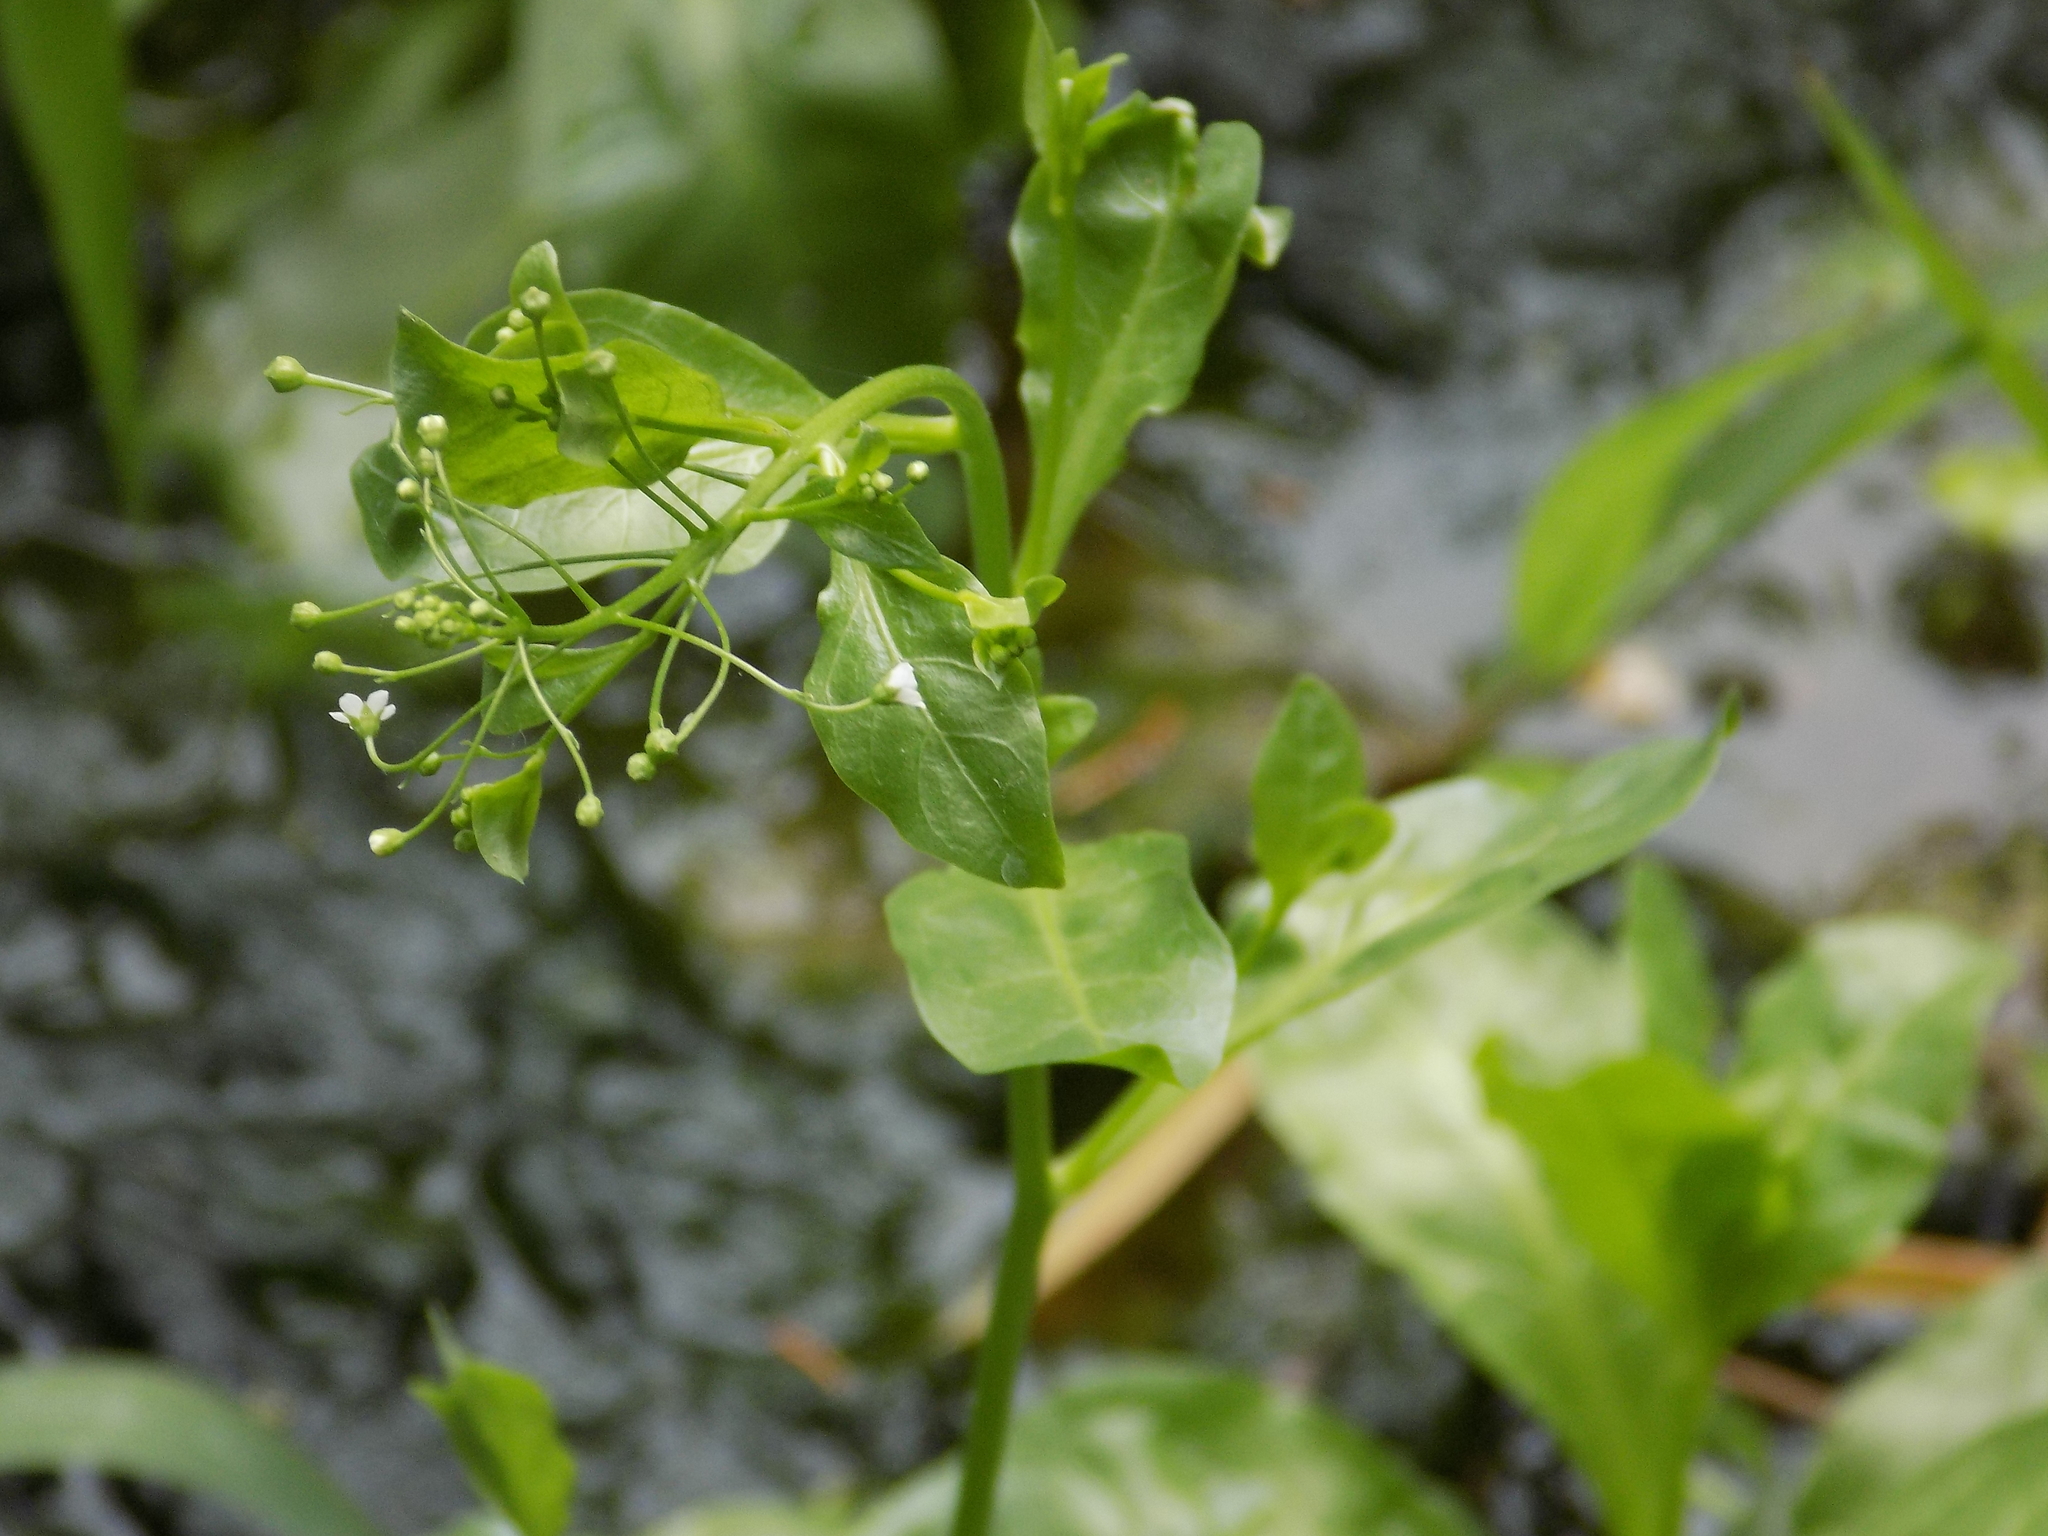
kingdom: Plantae
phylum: Tracheophyta
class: Magnoliopsida
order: Ericales
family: Primulaceae
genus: Samolus
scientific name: Samolus parviflorus
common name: False water pimpernel
